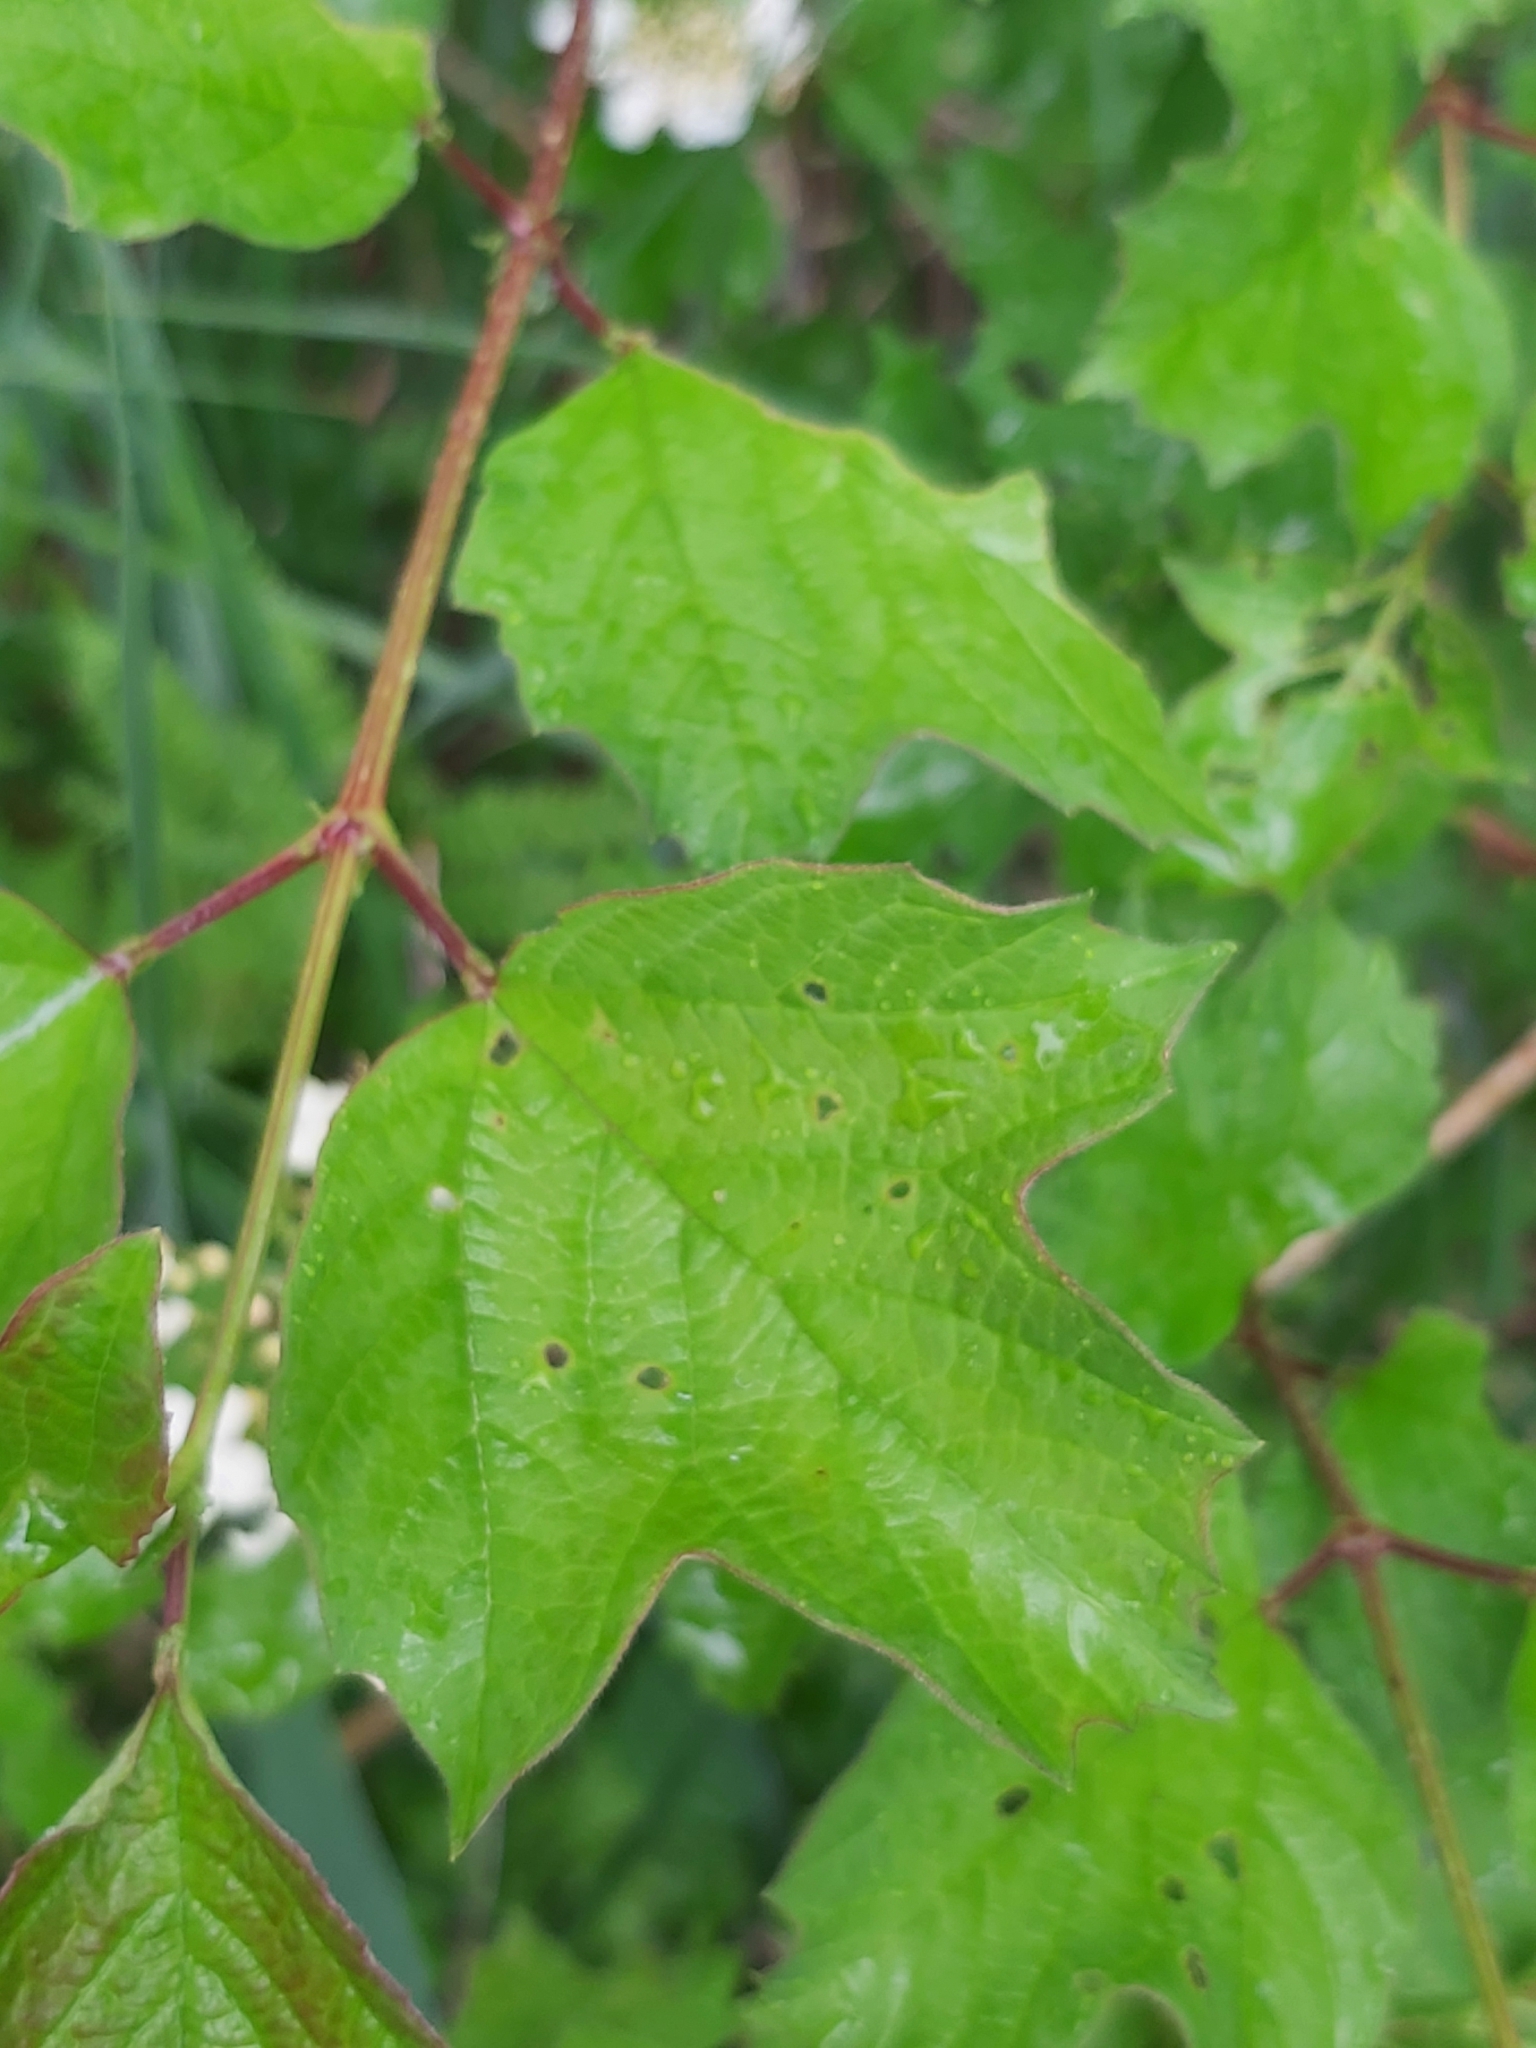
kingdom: Plantae
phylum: Tracheophyta
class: Magnoliopsida
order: Dipsacales
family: Viburnaceae
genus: Viburnum
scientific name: Viburnum opulus
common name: Guelder-rose
